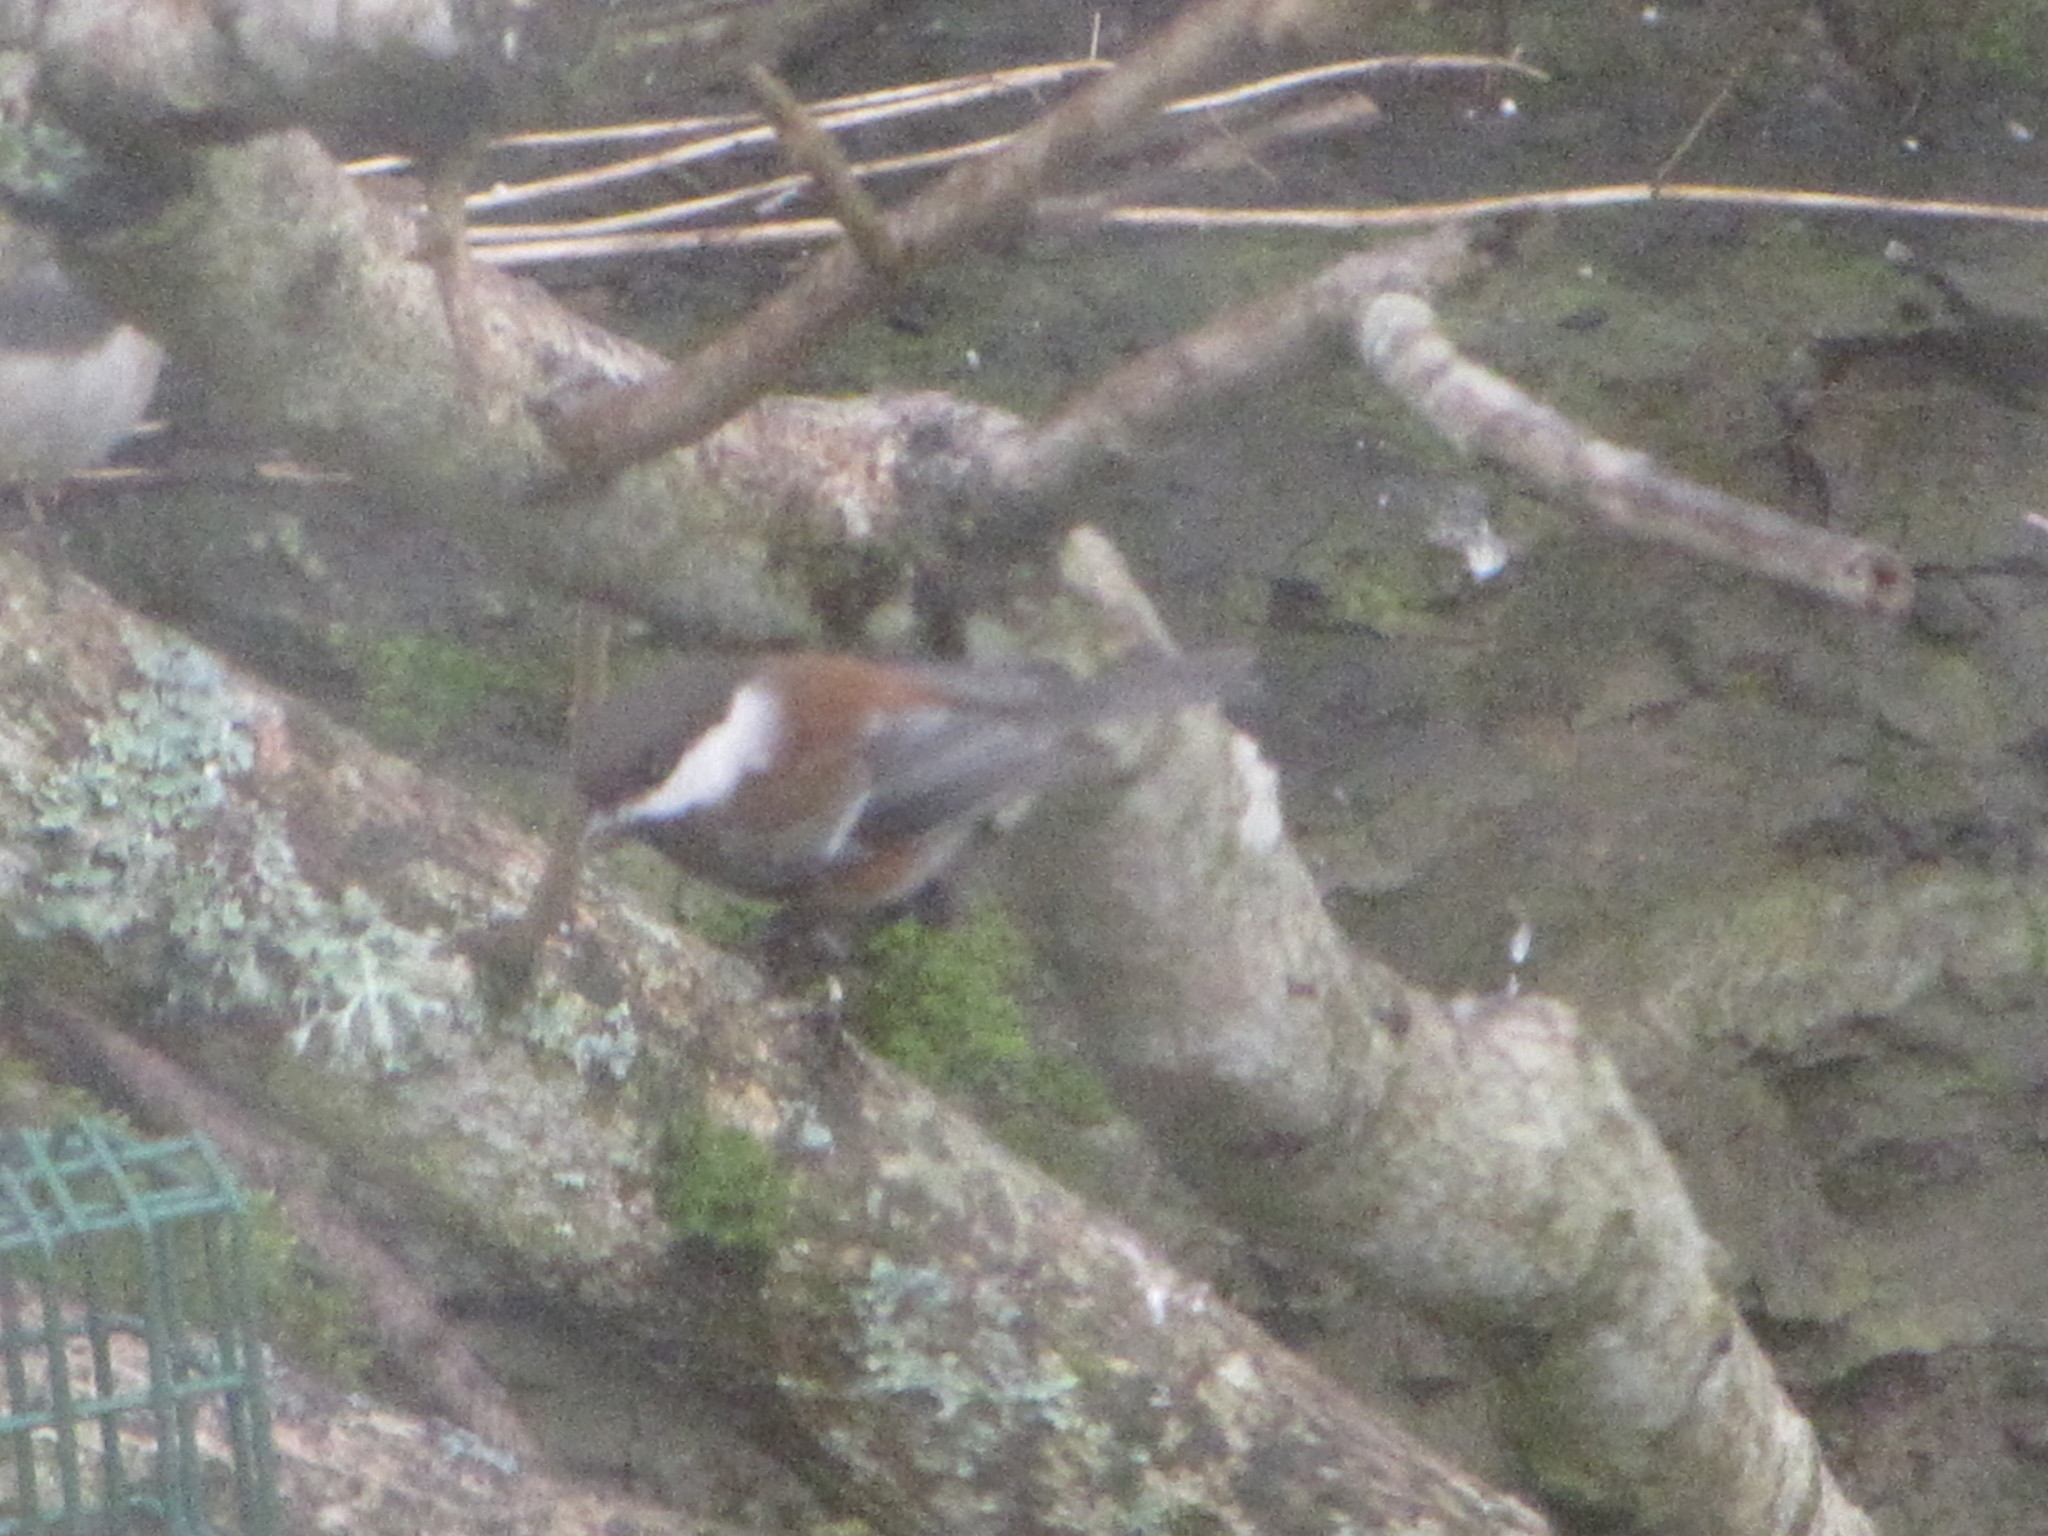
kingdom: Animalia
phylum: Chordata
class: Aves
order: Passeriformes
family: Paridae
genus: Poecile
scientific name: Poecile rufescens
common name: Chestnut-backed chickadee
